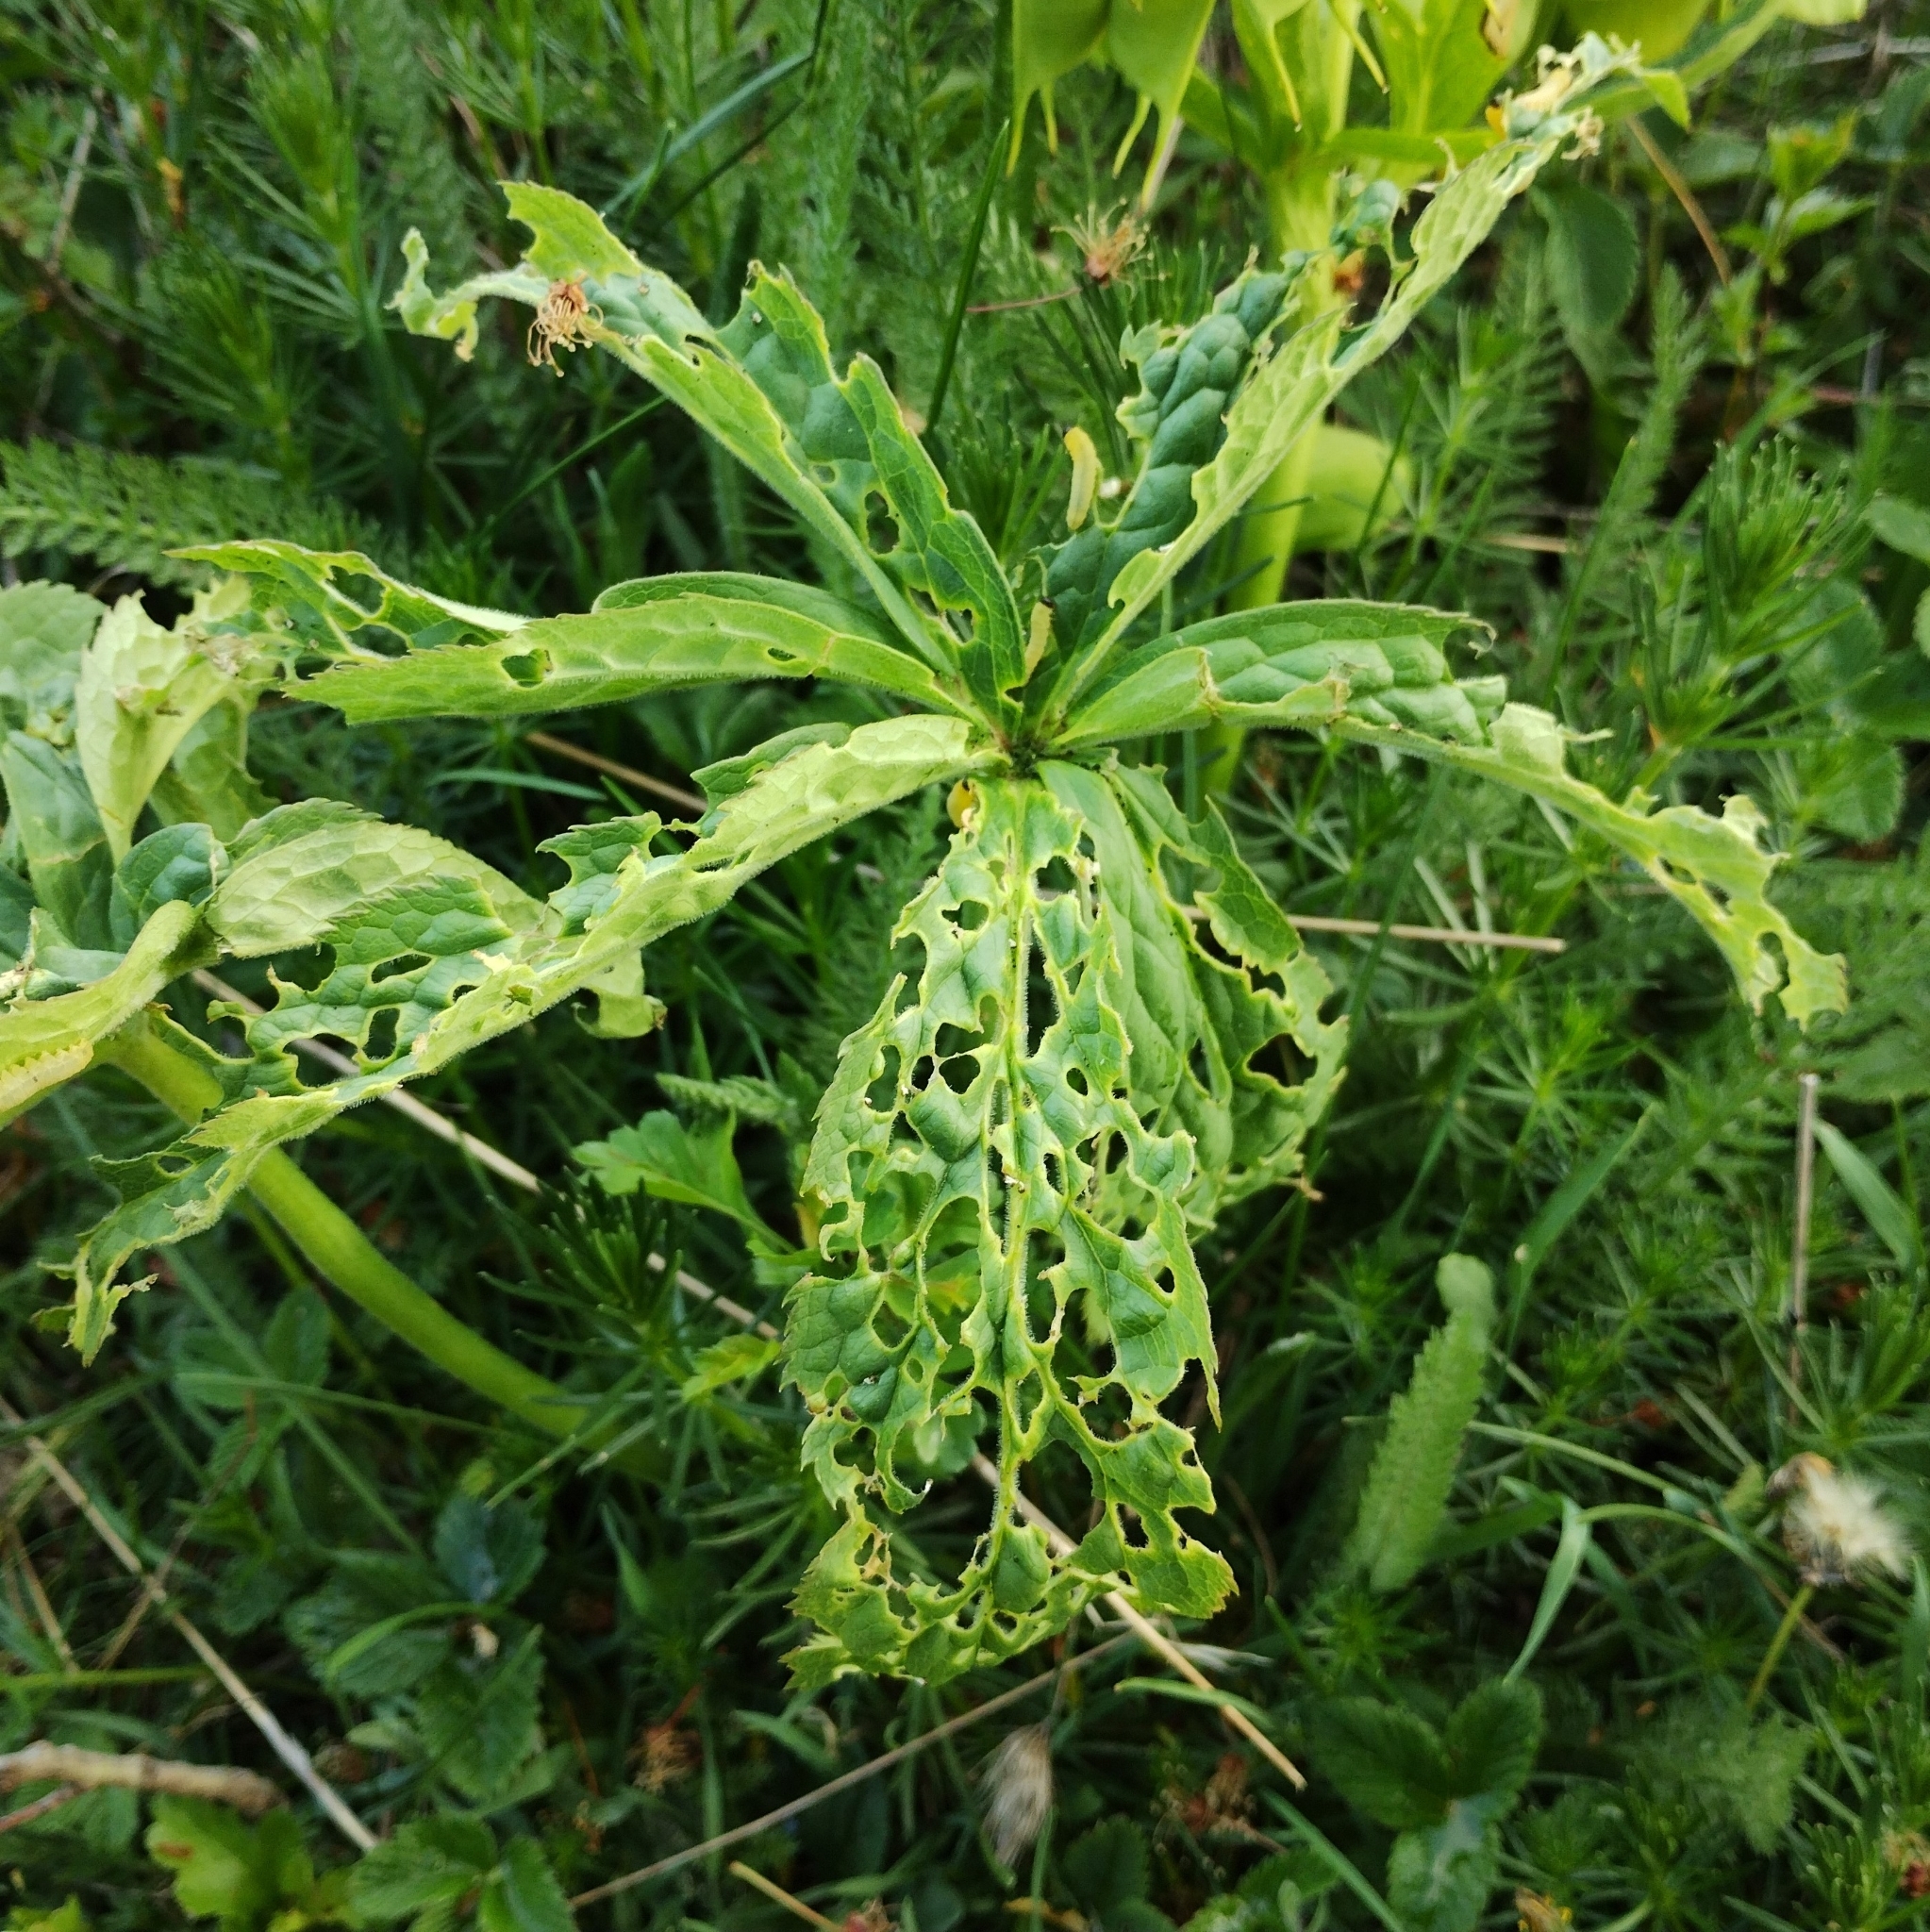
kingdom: Animalia
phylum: Arthropoda
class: Insecta
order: Hymenoptera
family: Tenthredinidae
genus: Monophadnus
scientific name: Monophadnus taegeri
